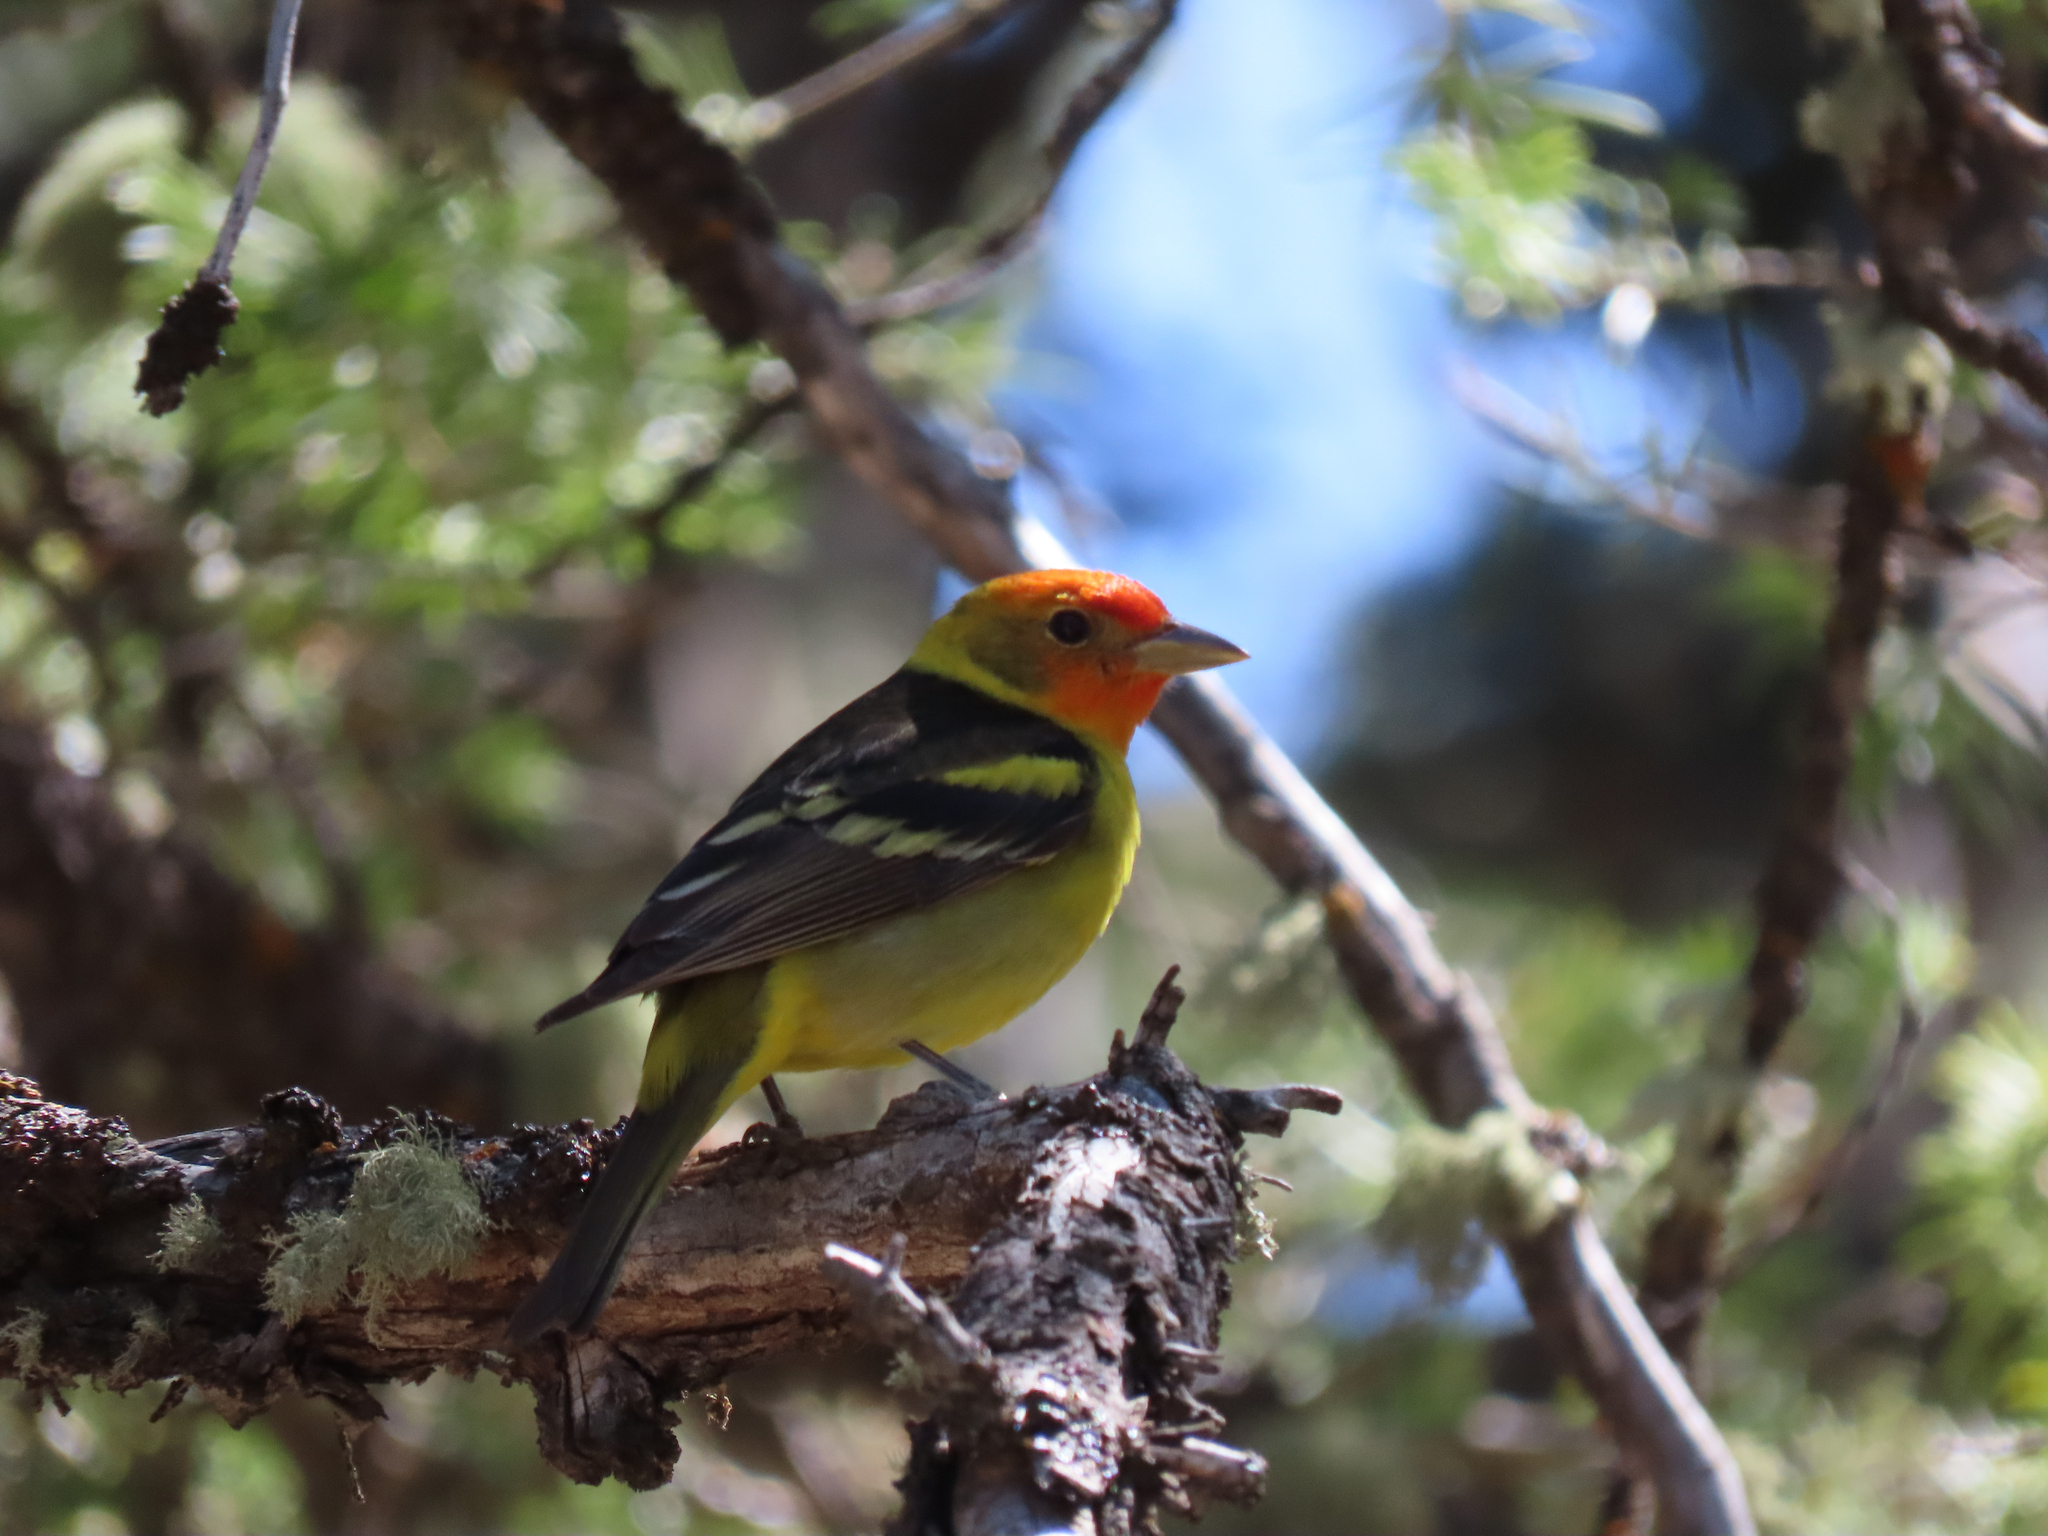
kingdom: Animalia
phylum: Chordata
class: Aves
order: Passeriformes
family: Cardinalidae
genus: Piranga
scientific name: Piranga ludoviciana
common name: Western tanager
